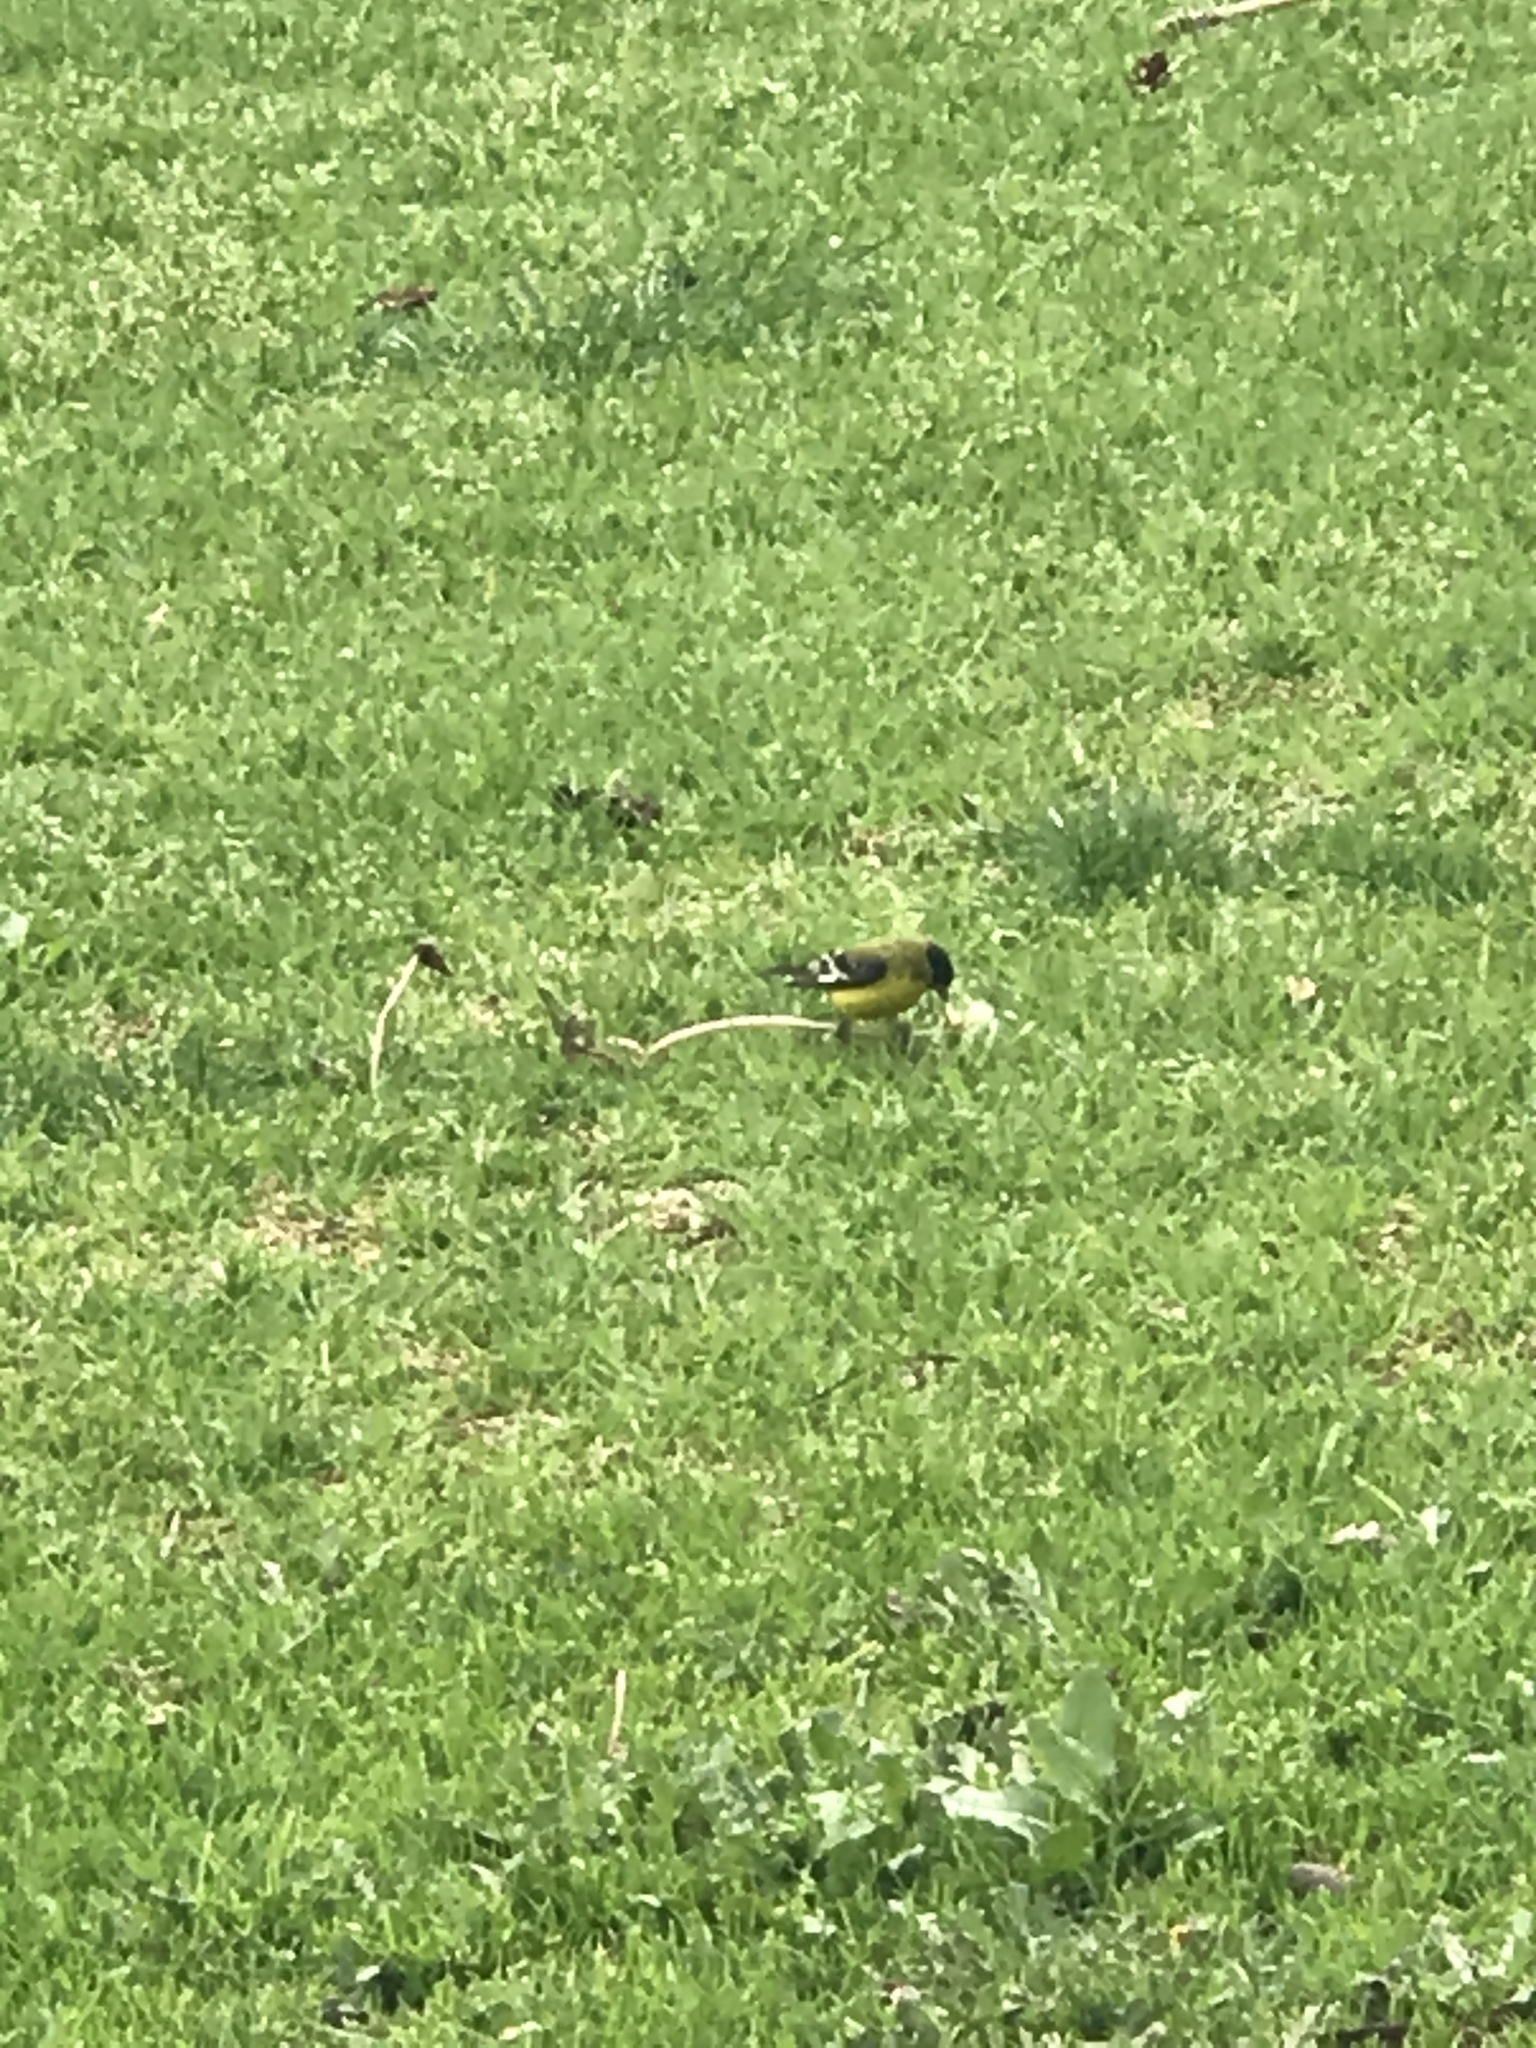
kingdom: Animalia
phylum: Chordata
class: Aves
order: Passeriformes
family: Fringillidae
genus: Spinus
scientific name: Spinus psaltria
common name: Lesser goldfinch
